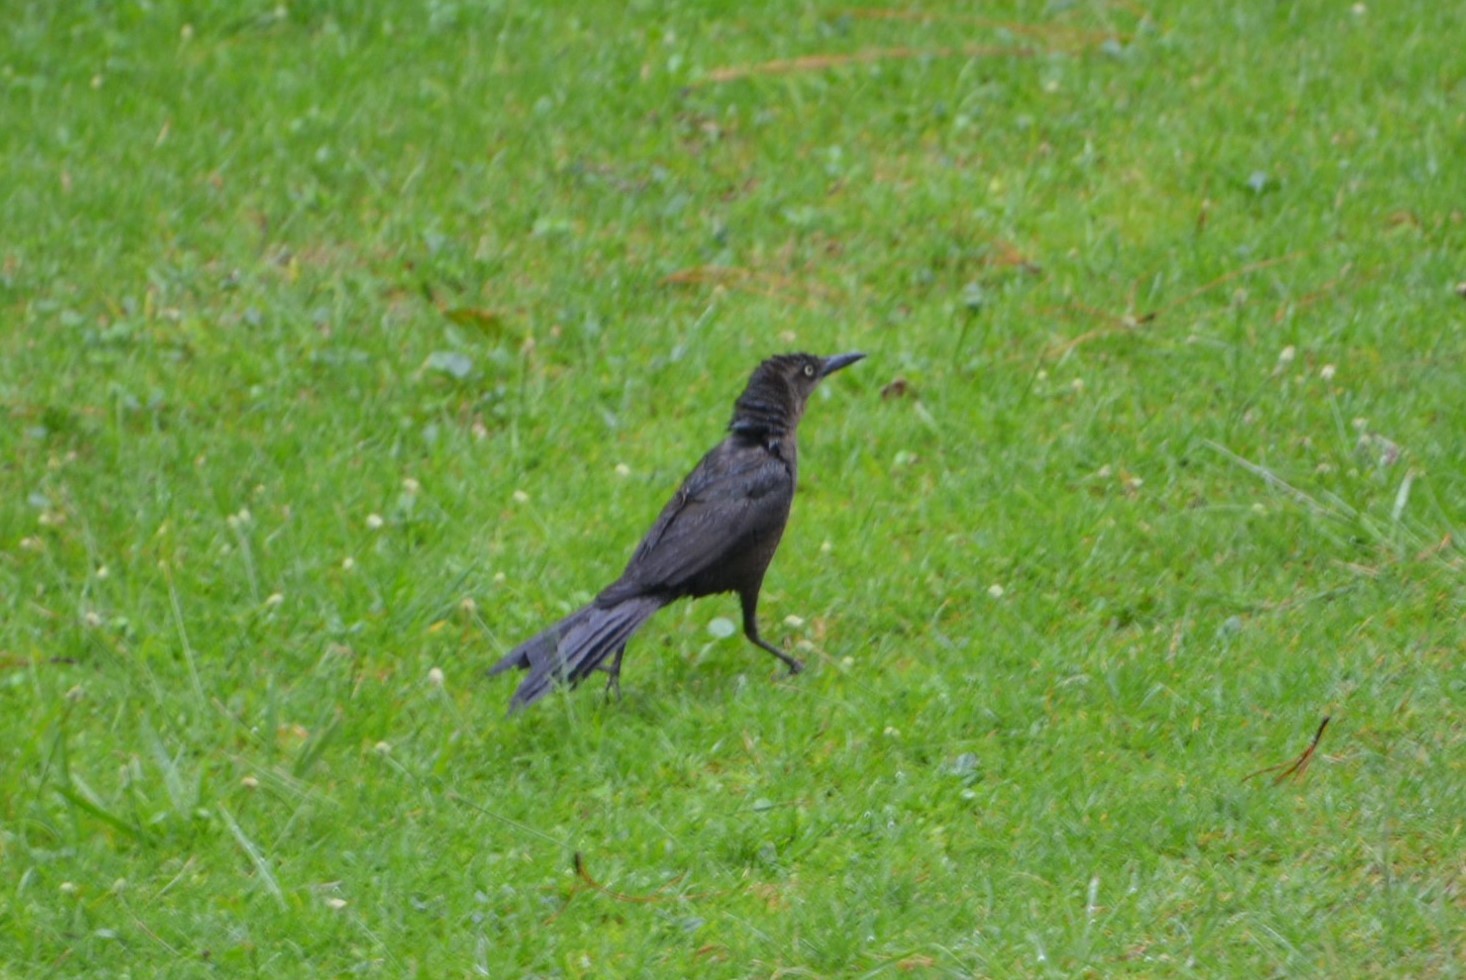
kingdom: Animalia
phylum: Chordata
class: Aves
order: Passeriformes
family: Icteridae
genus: Quiscalus
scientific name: Quiscalus mexicanus
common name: Great-tailed grackle
